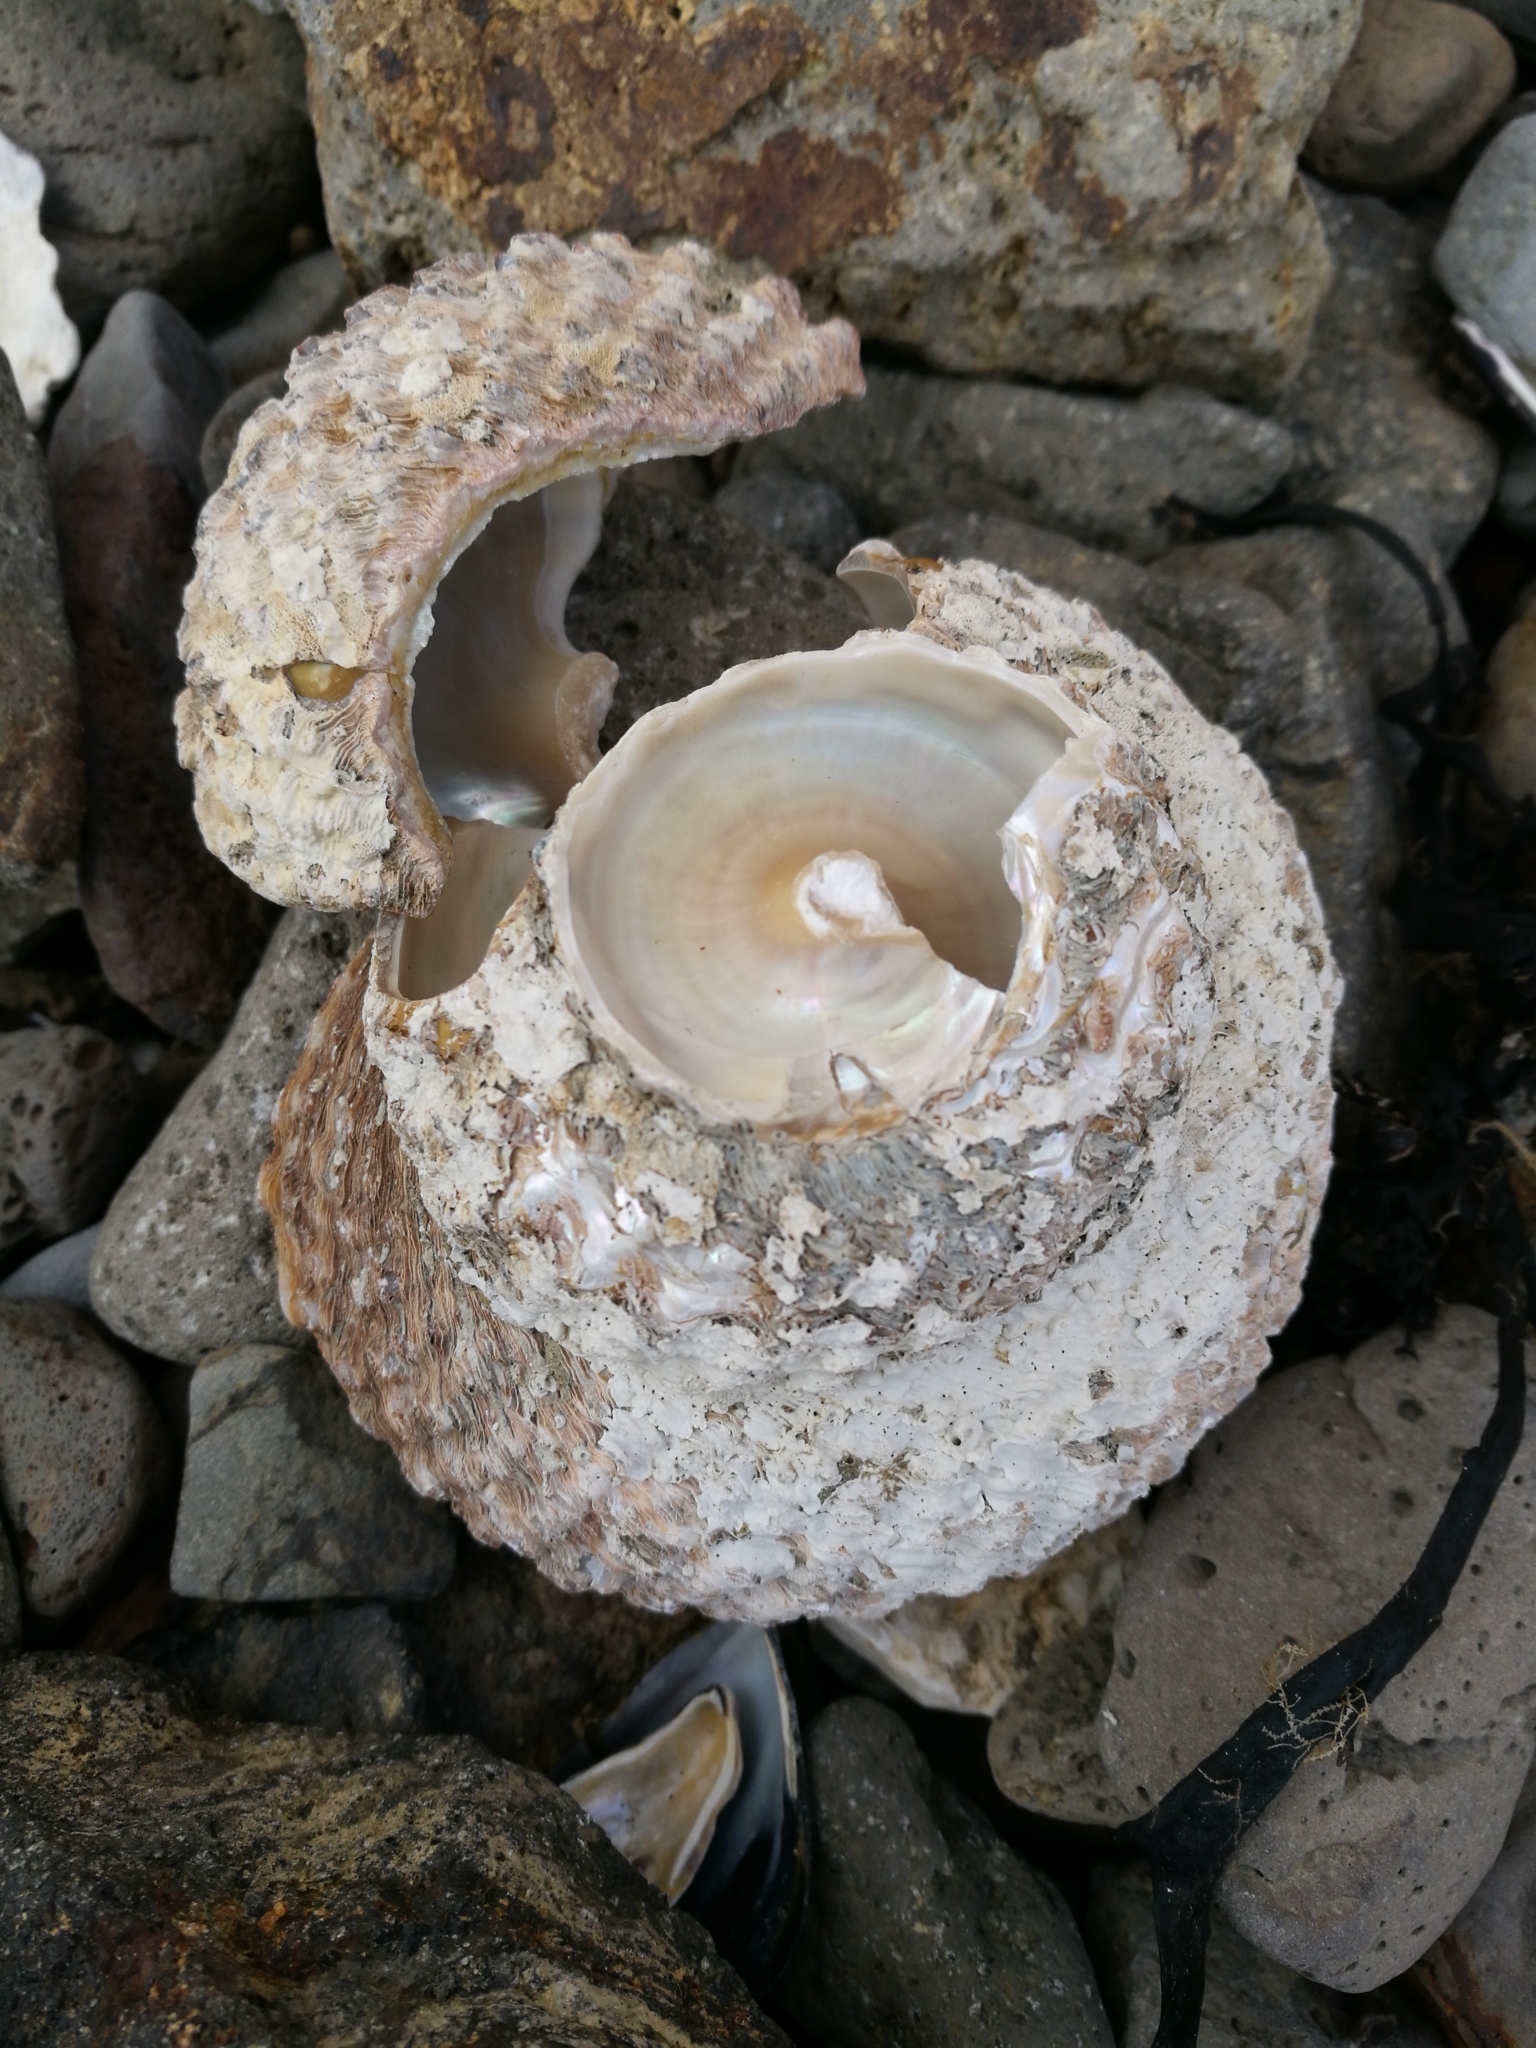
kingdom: Animalia
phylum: Mollusca
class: Gastropoda
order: Trochida
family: Turbinidae
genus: Cookia
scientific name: Cookia sulcata
